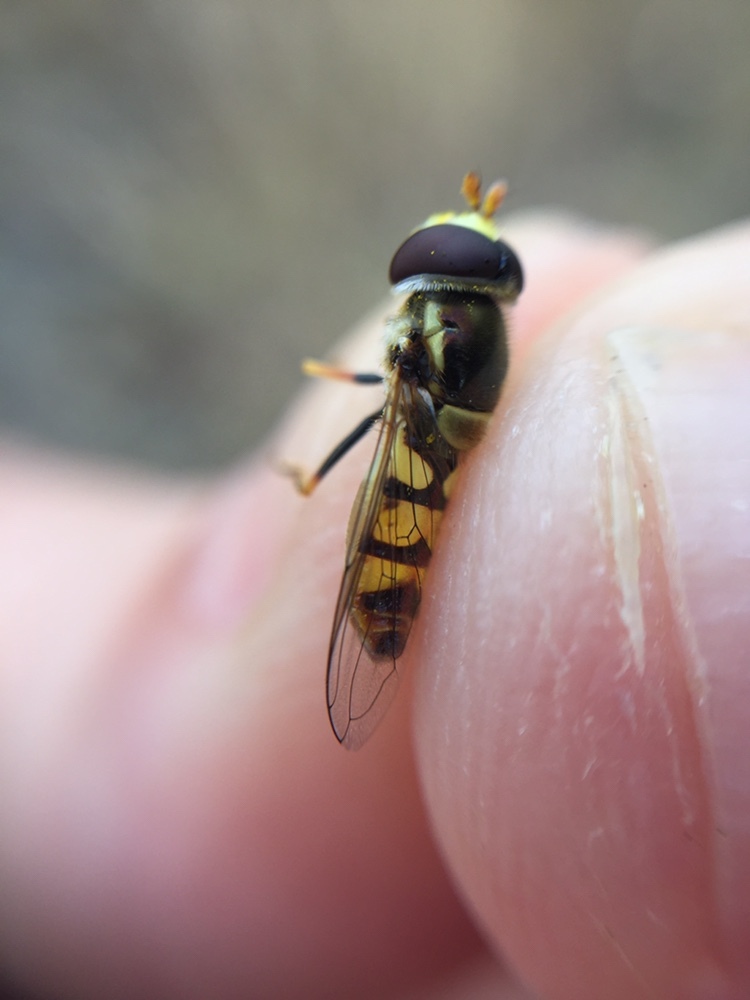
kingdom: Animalia
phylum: Arthropoda
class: Insecta
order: Diptera
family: Syrphidae
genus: Simosyrphus
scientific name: Simosyrphus grandicornis
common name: Hoverfly
